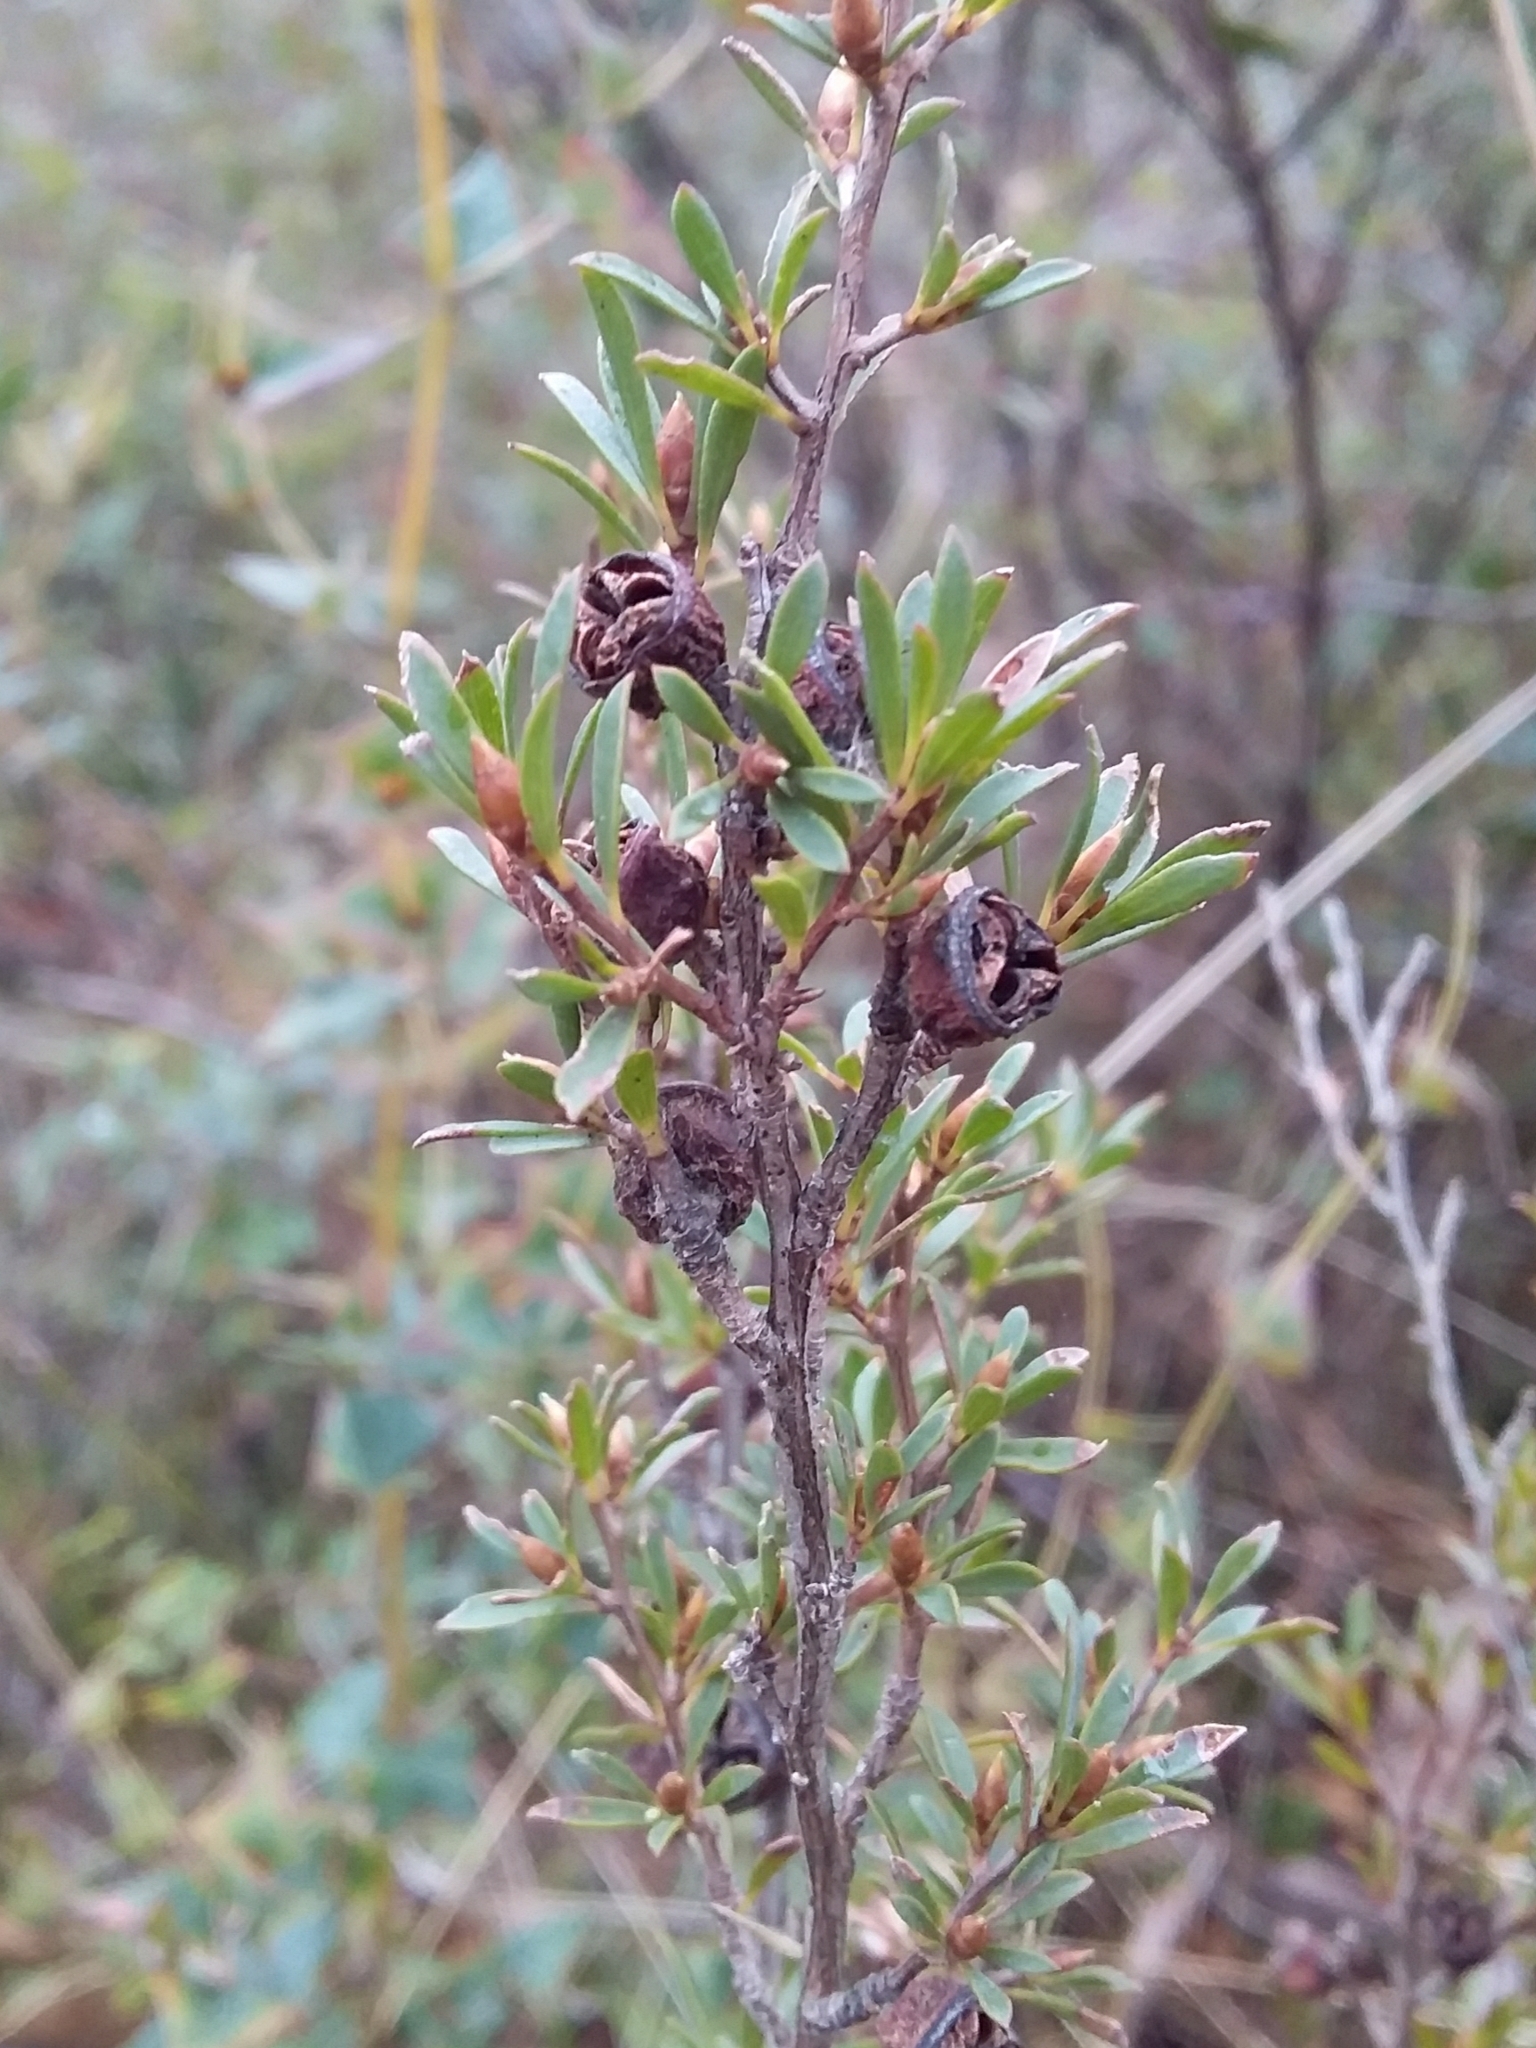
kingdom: Plantae
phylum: Tracheophyta
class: Magnoliopsida
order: Myrtales
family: Myrtaceae
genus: Leptospermum
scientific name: Leptospermum myrsinoides
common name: Heath teatree
